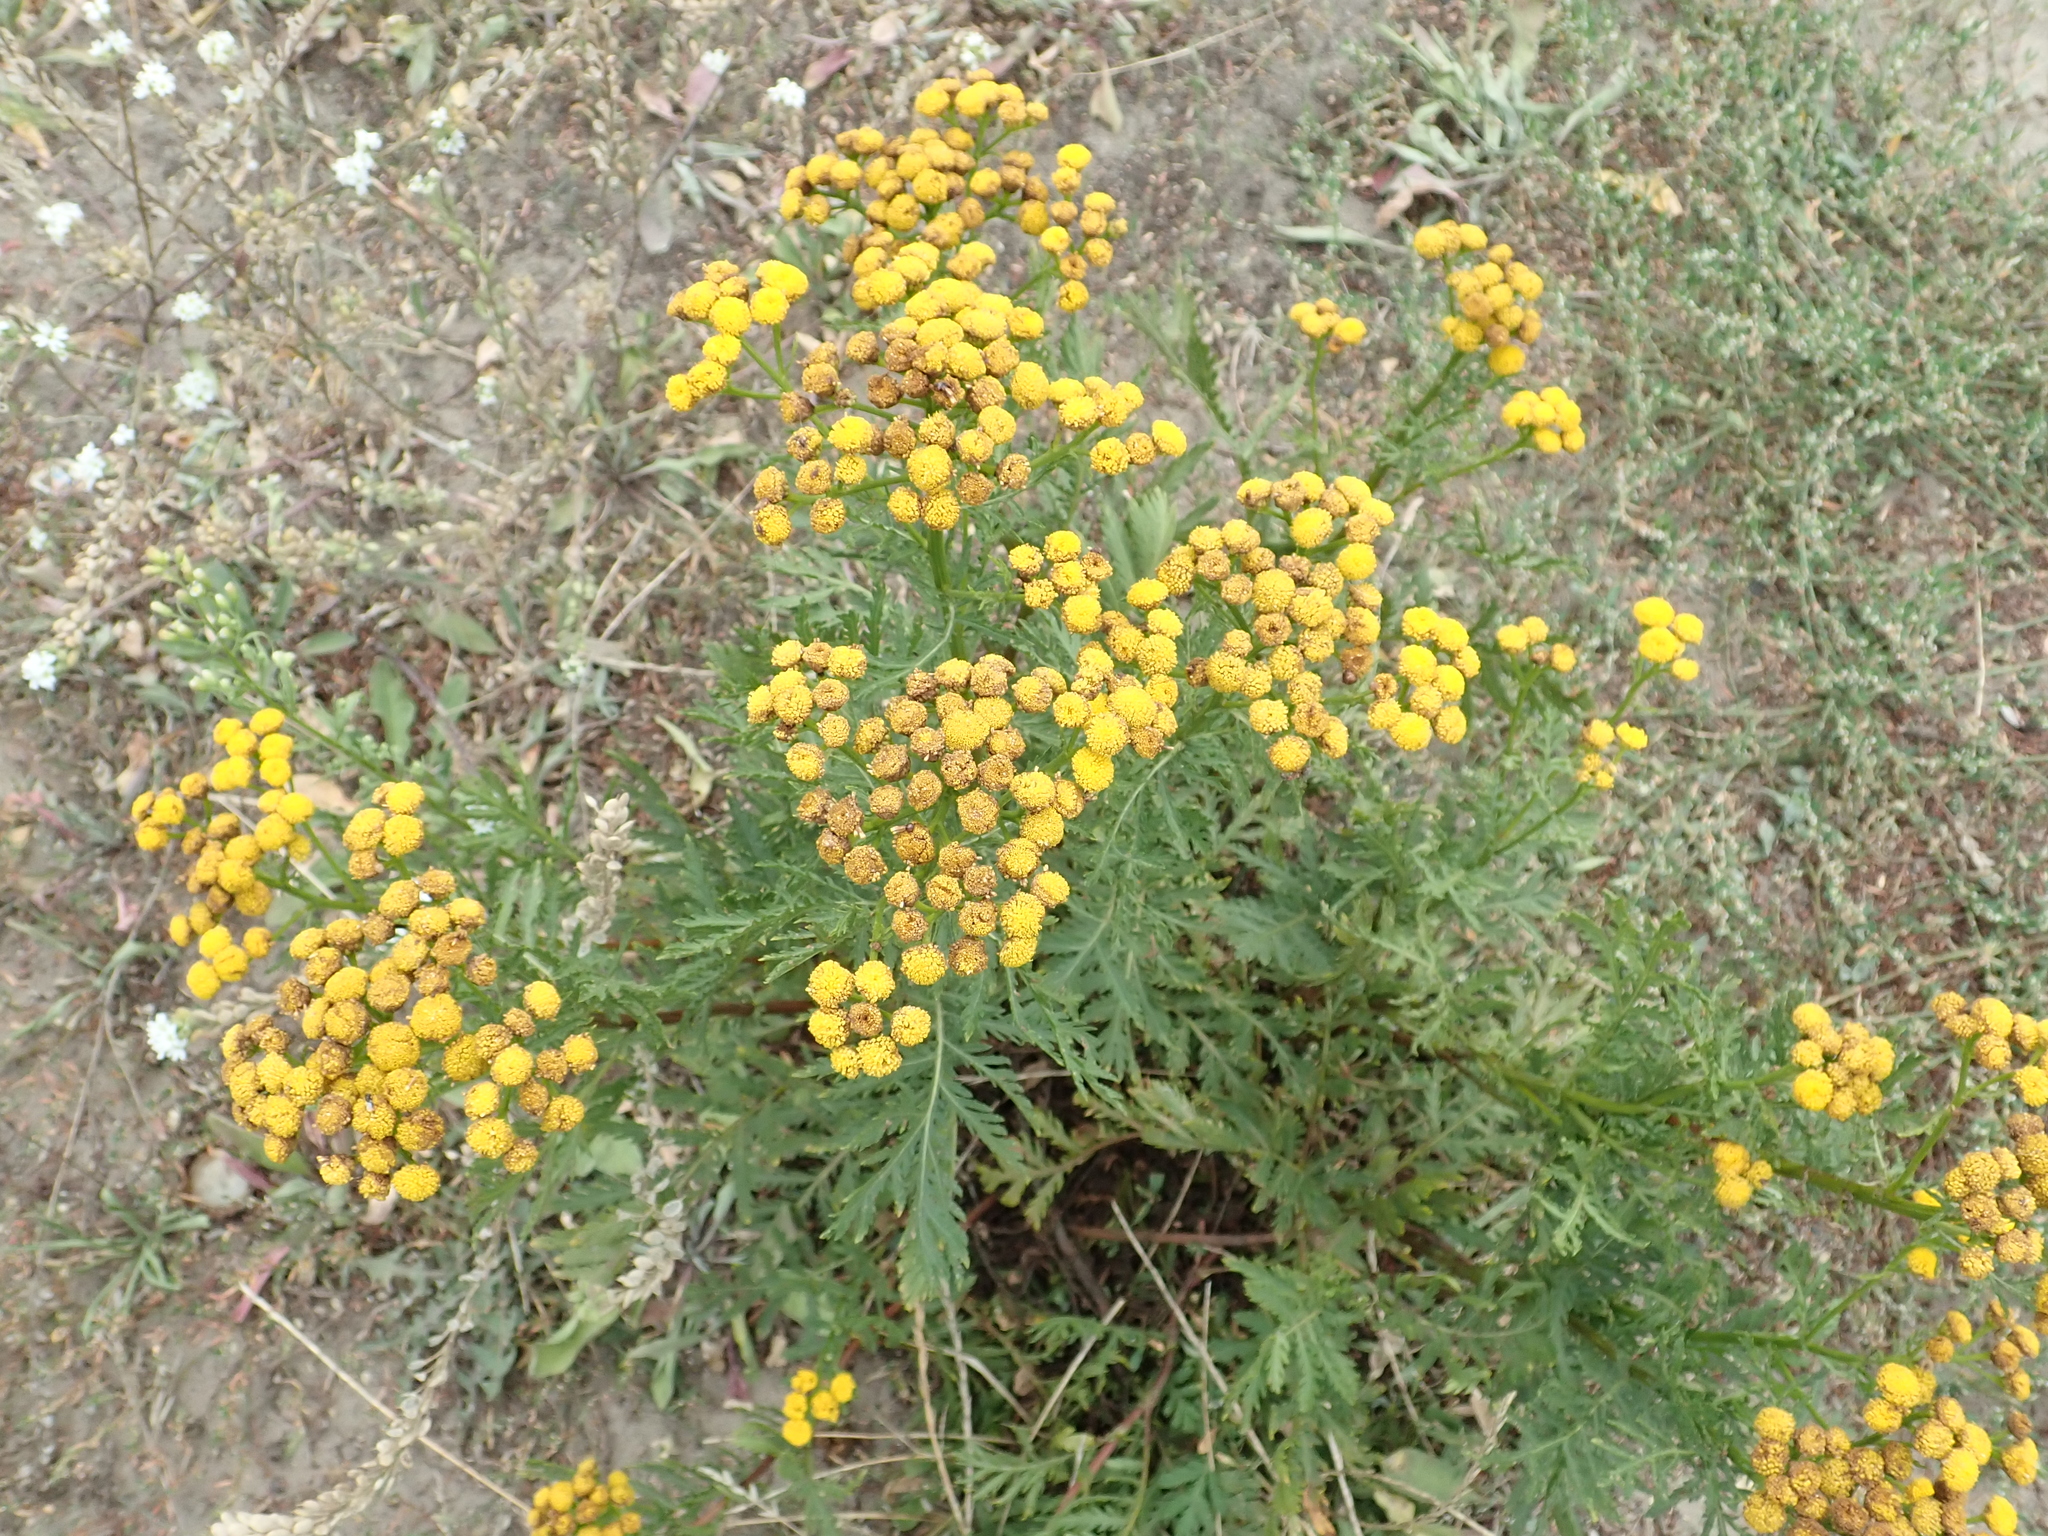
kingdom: Plantae
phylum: Tracheophyta
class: Magnoliopsida
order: Asterales
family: Asteraceae
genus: Tanacetum
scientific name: Tanacetum vulgare
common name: Common tansy
